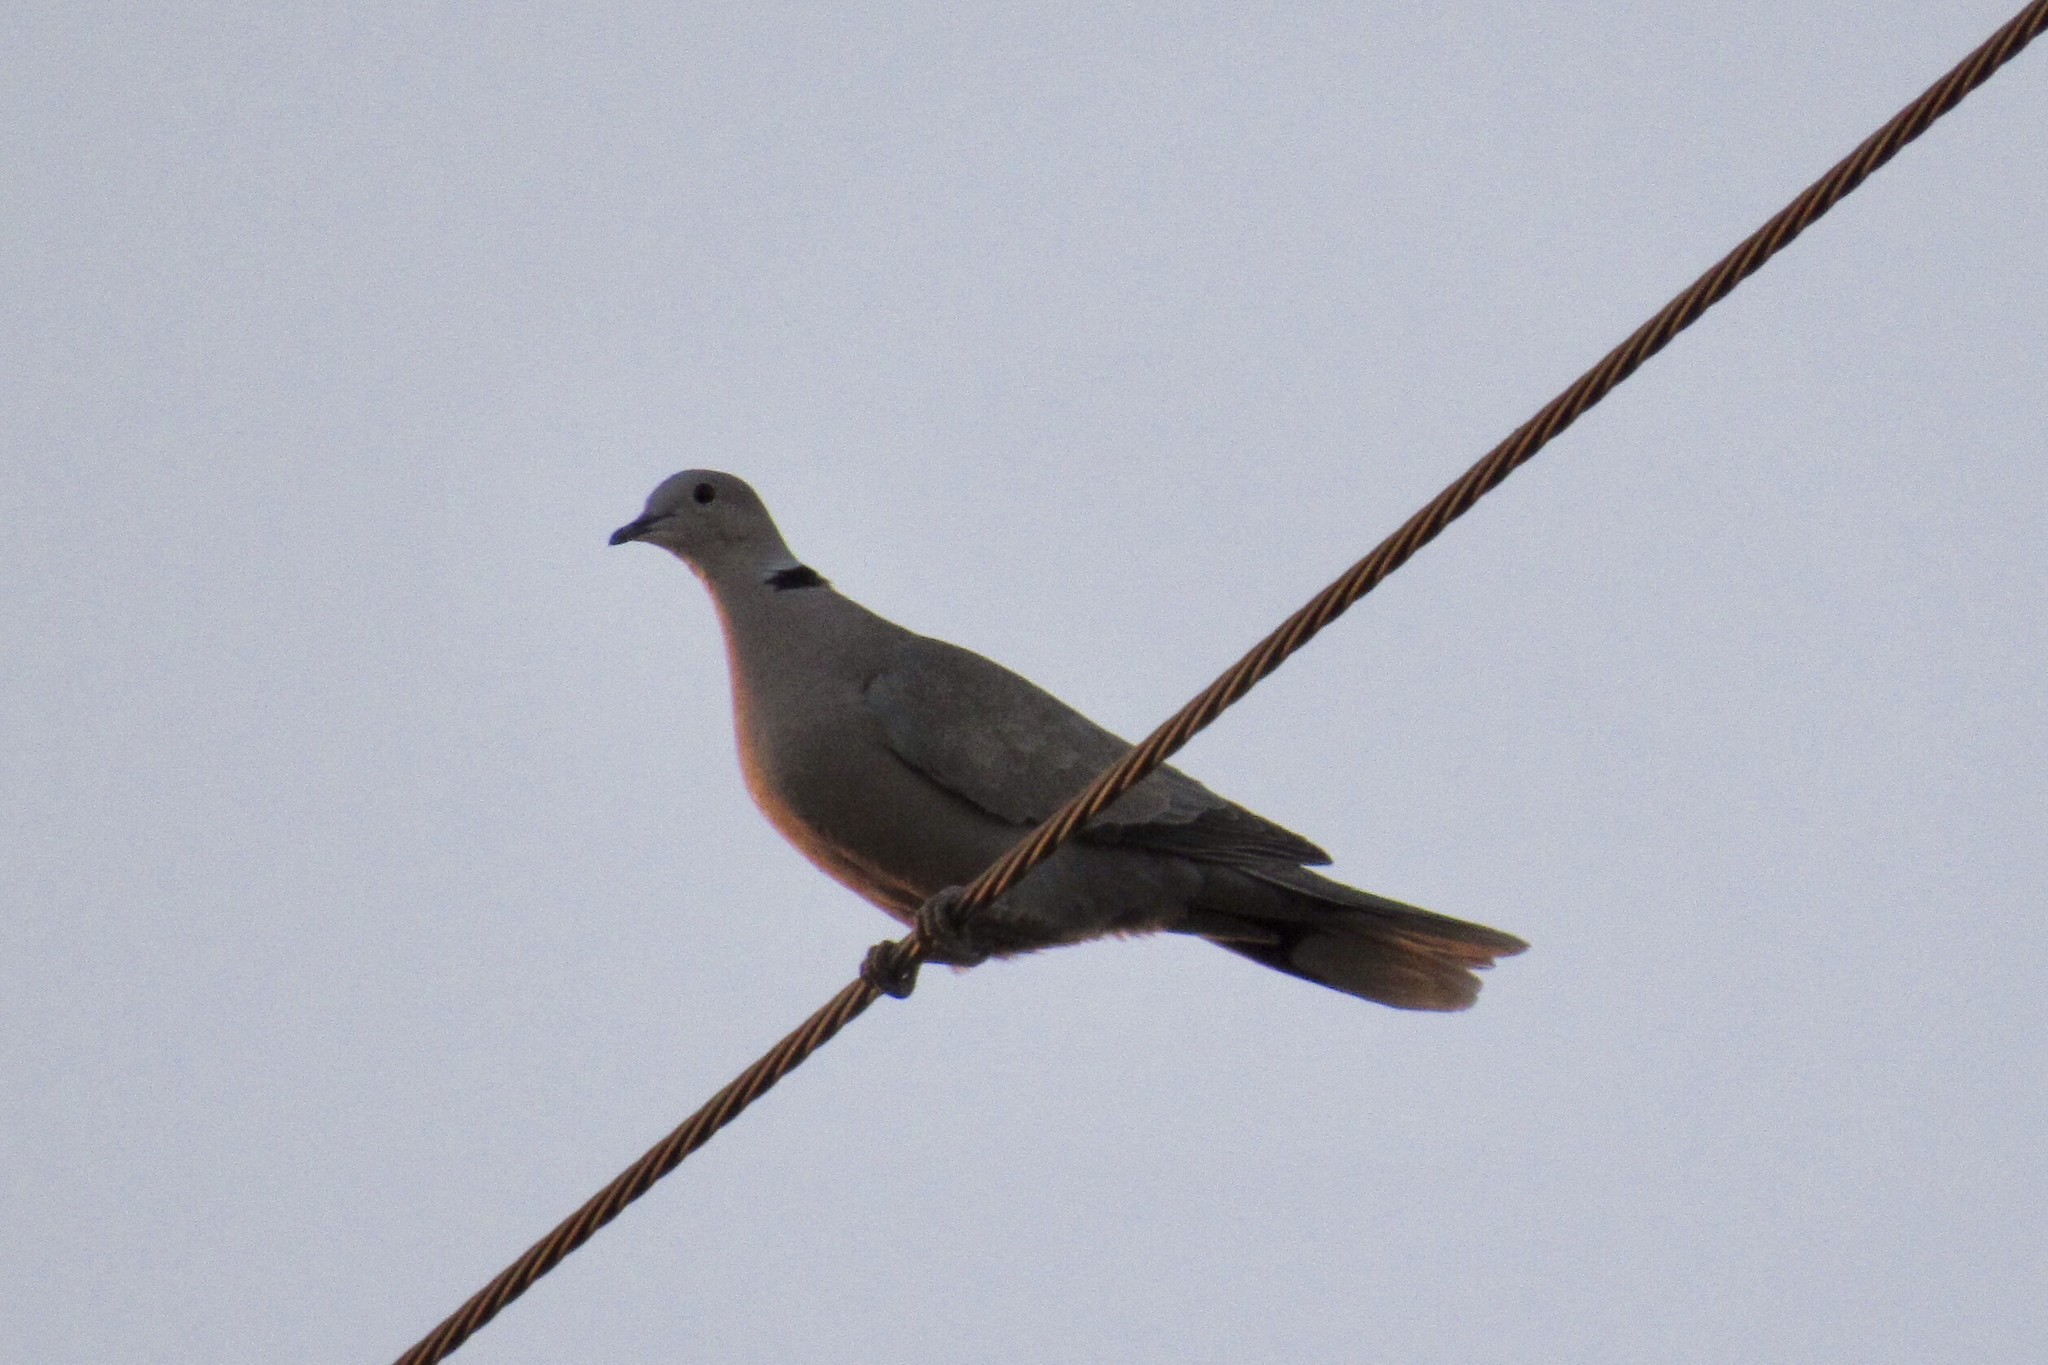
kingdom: Animalia
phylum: Chordata
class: Aves
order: Columbiformes
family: Columbidae
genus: Streptopelia
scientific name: Streptopelia decaocto
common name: Eurasian collared dove
